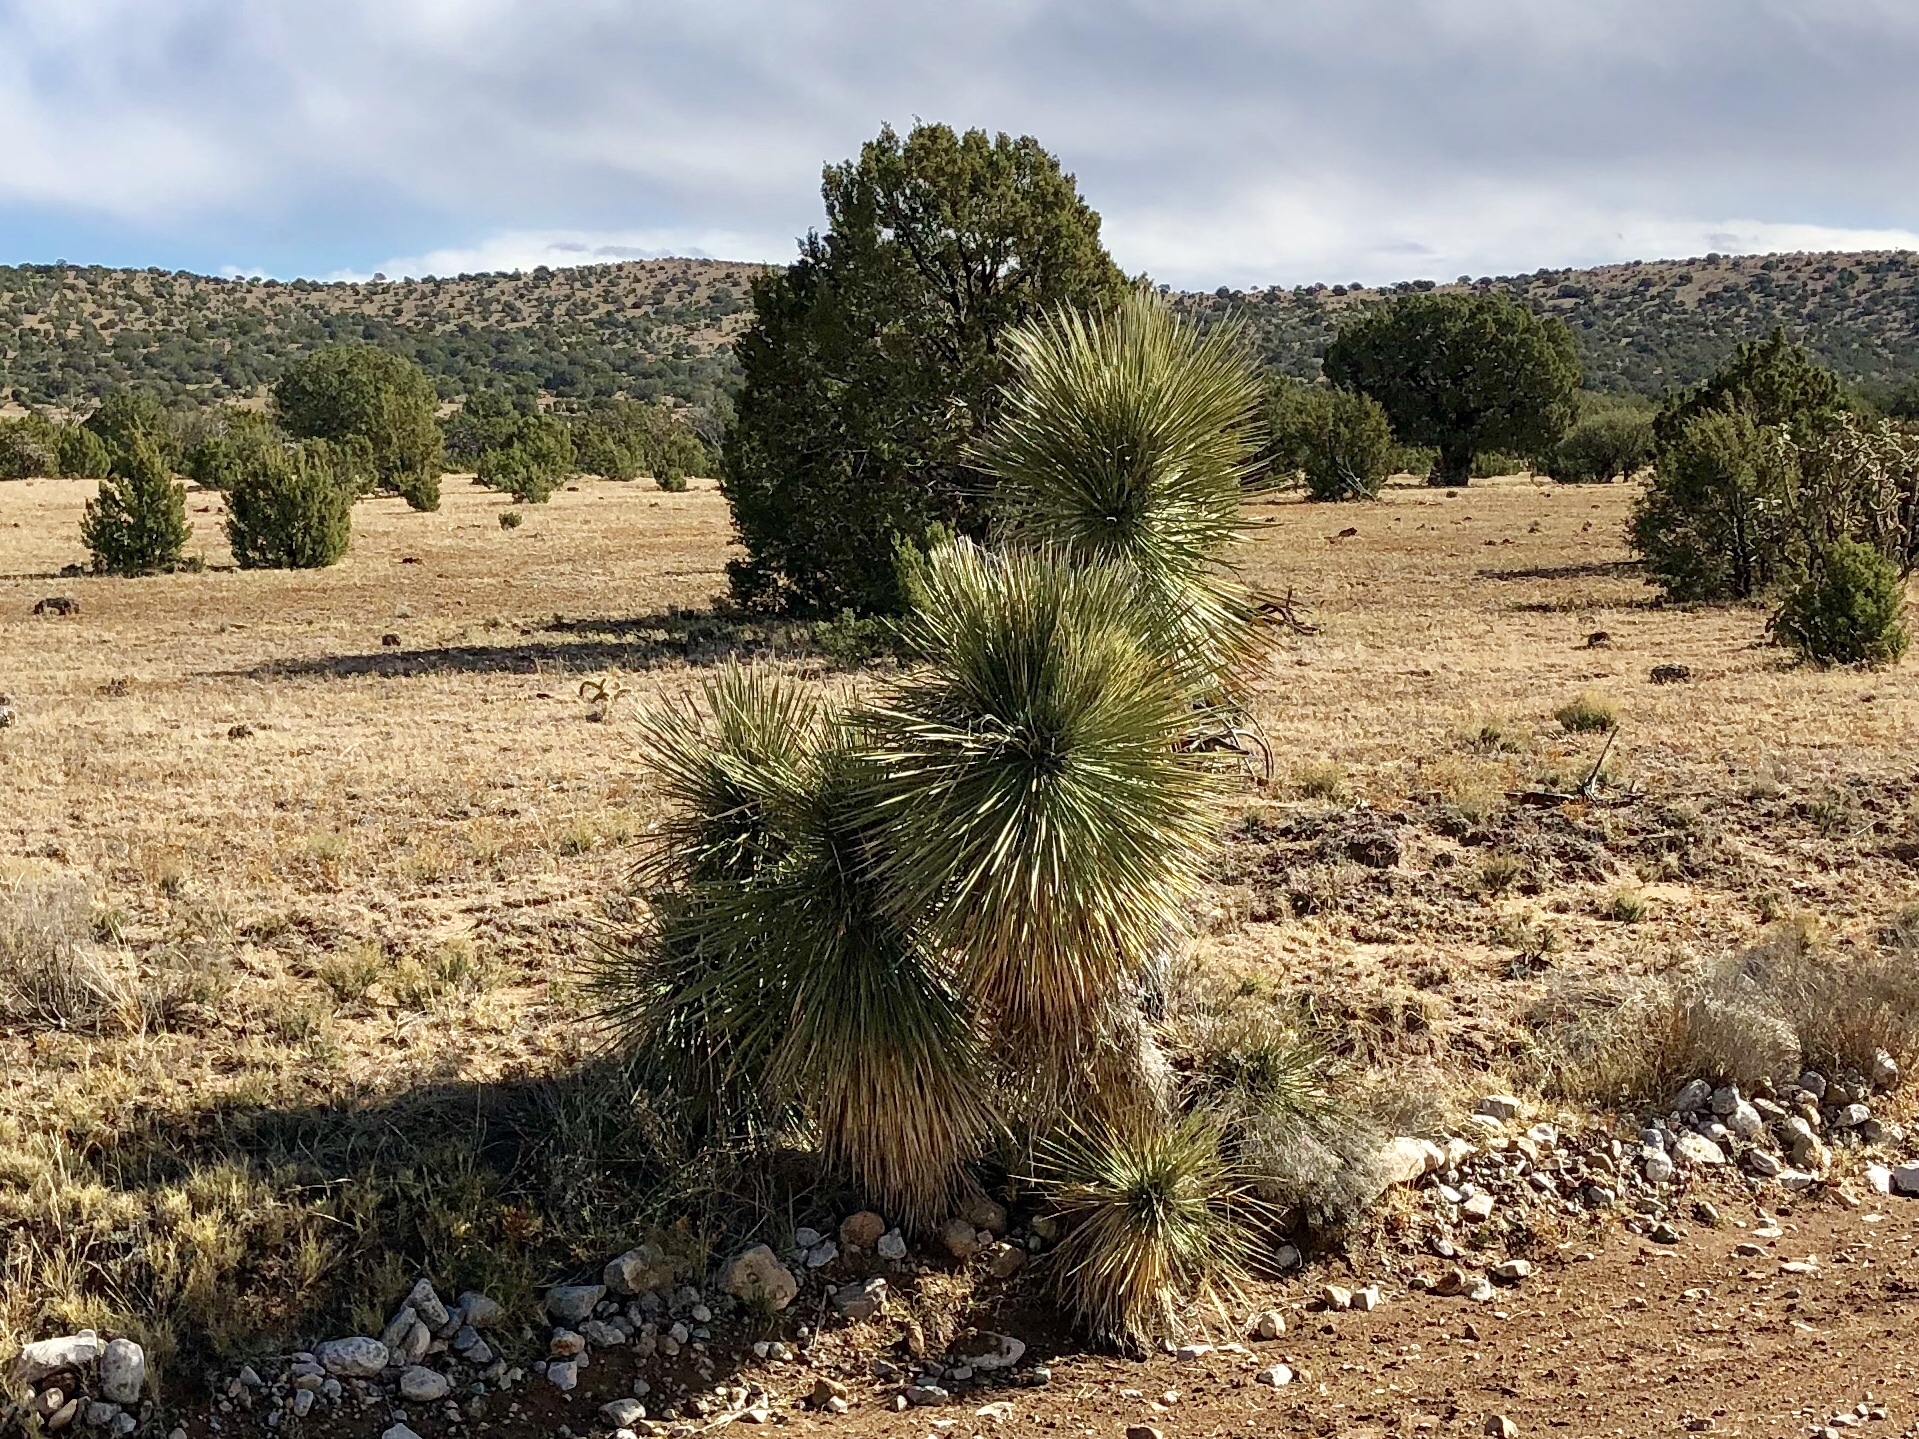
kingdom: Plantae
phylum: Tracheophyta
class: Liliopsida
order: Asparagales
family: Asparagaceae
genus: Yucca
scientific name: Yucca elata
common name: Palmella
